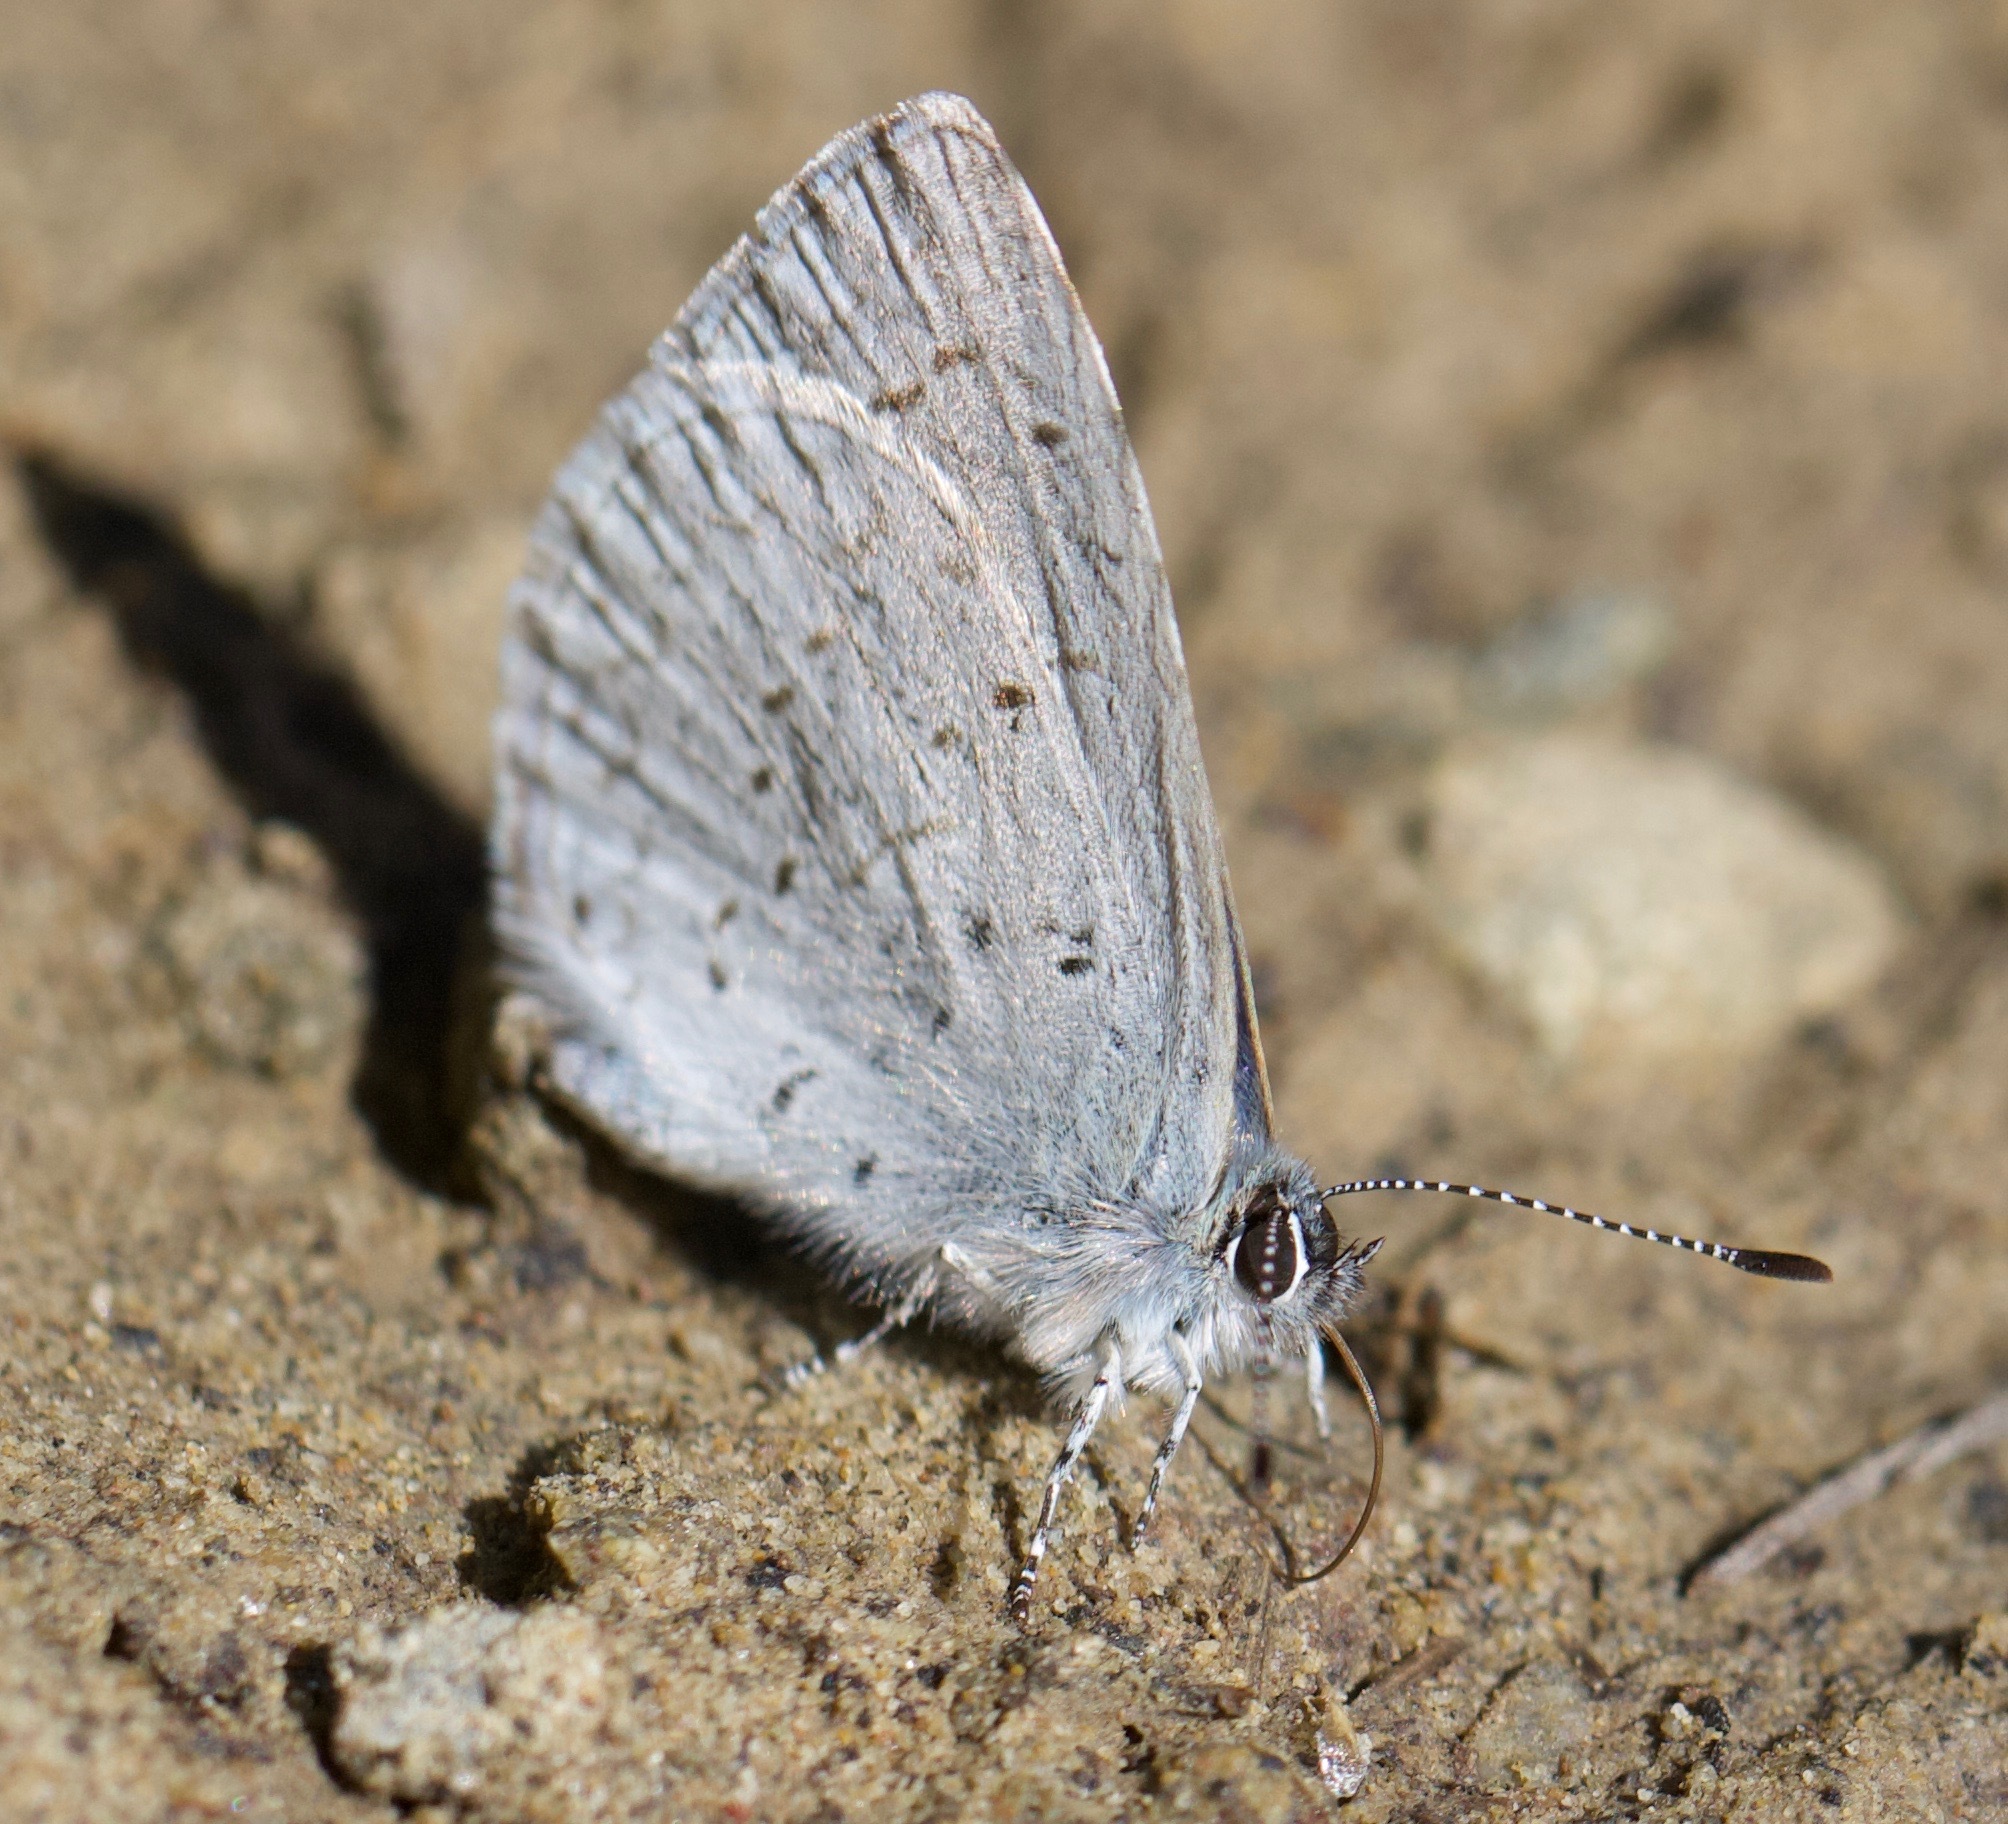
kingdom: Animalia
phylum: Arthropoda
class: Insecta
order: Lepidoptera
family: Lycaenidae
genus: Celastrina
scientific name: Celastrina ladon
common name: Spring azure
